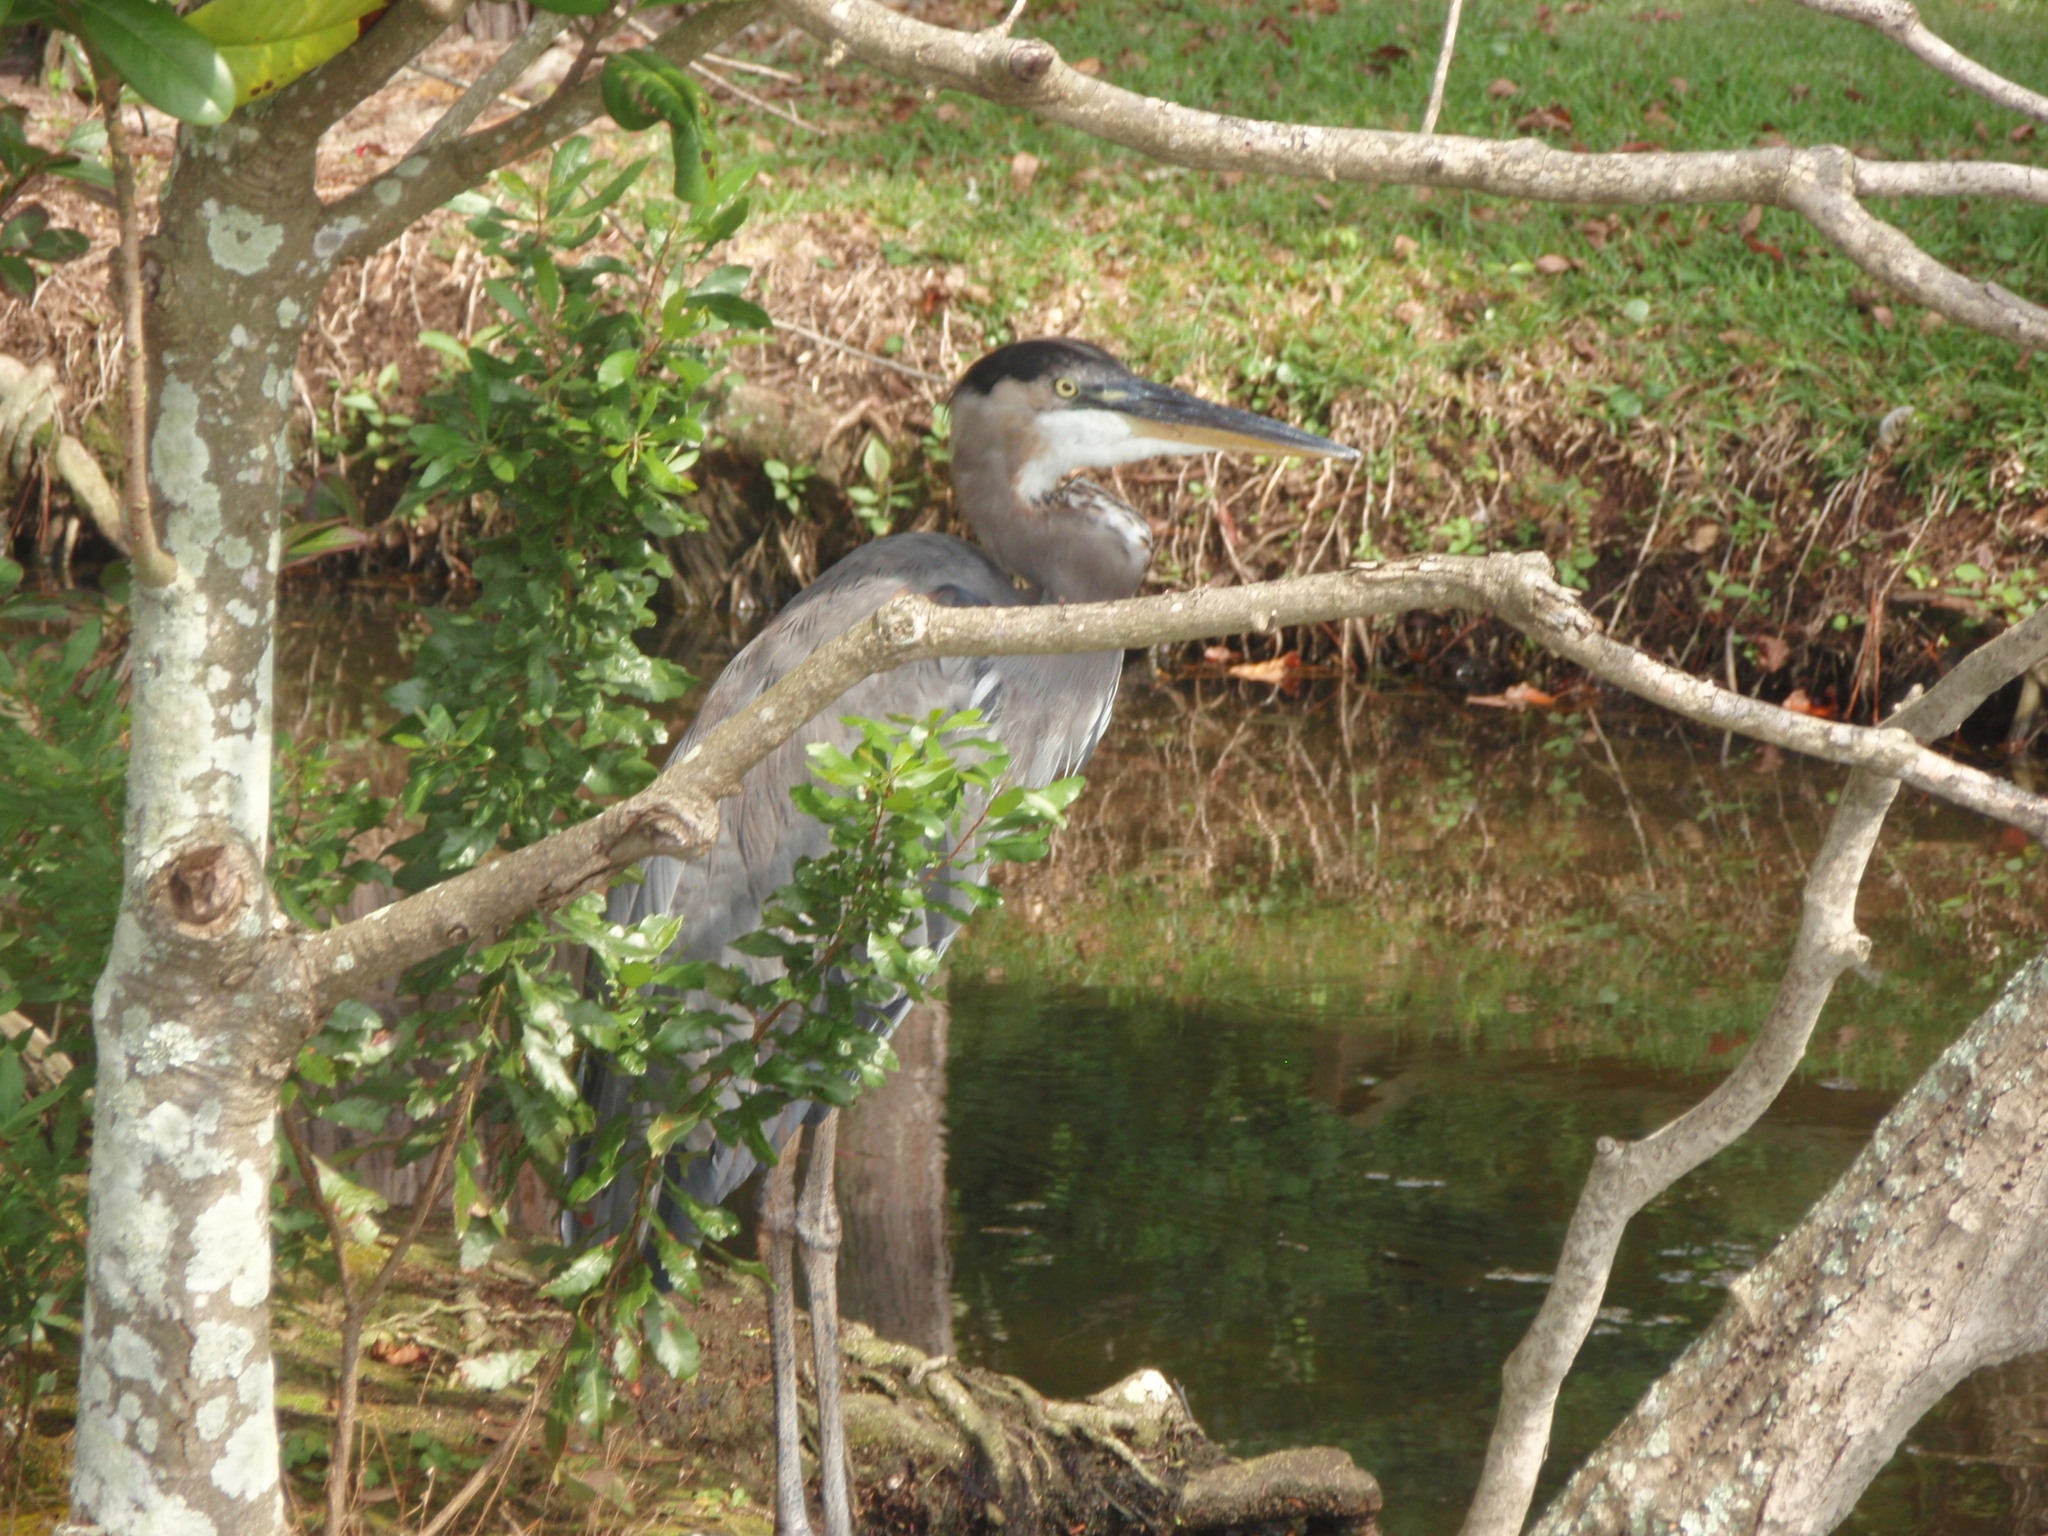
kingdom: Animalia
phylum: Chordata
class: Aves
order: Pelecaniformes
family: Ardeidae
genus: Ardea
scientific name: Ardea herodias
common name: Great blue heron
